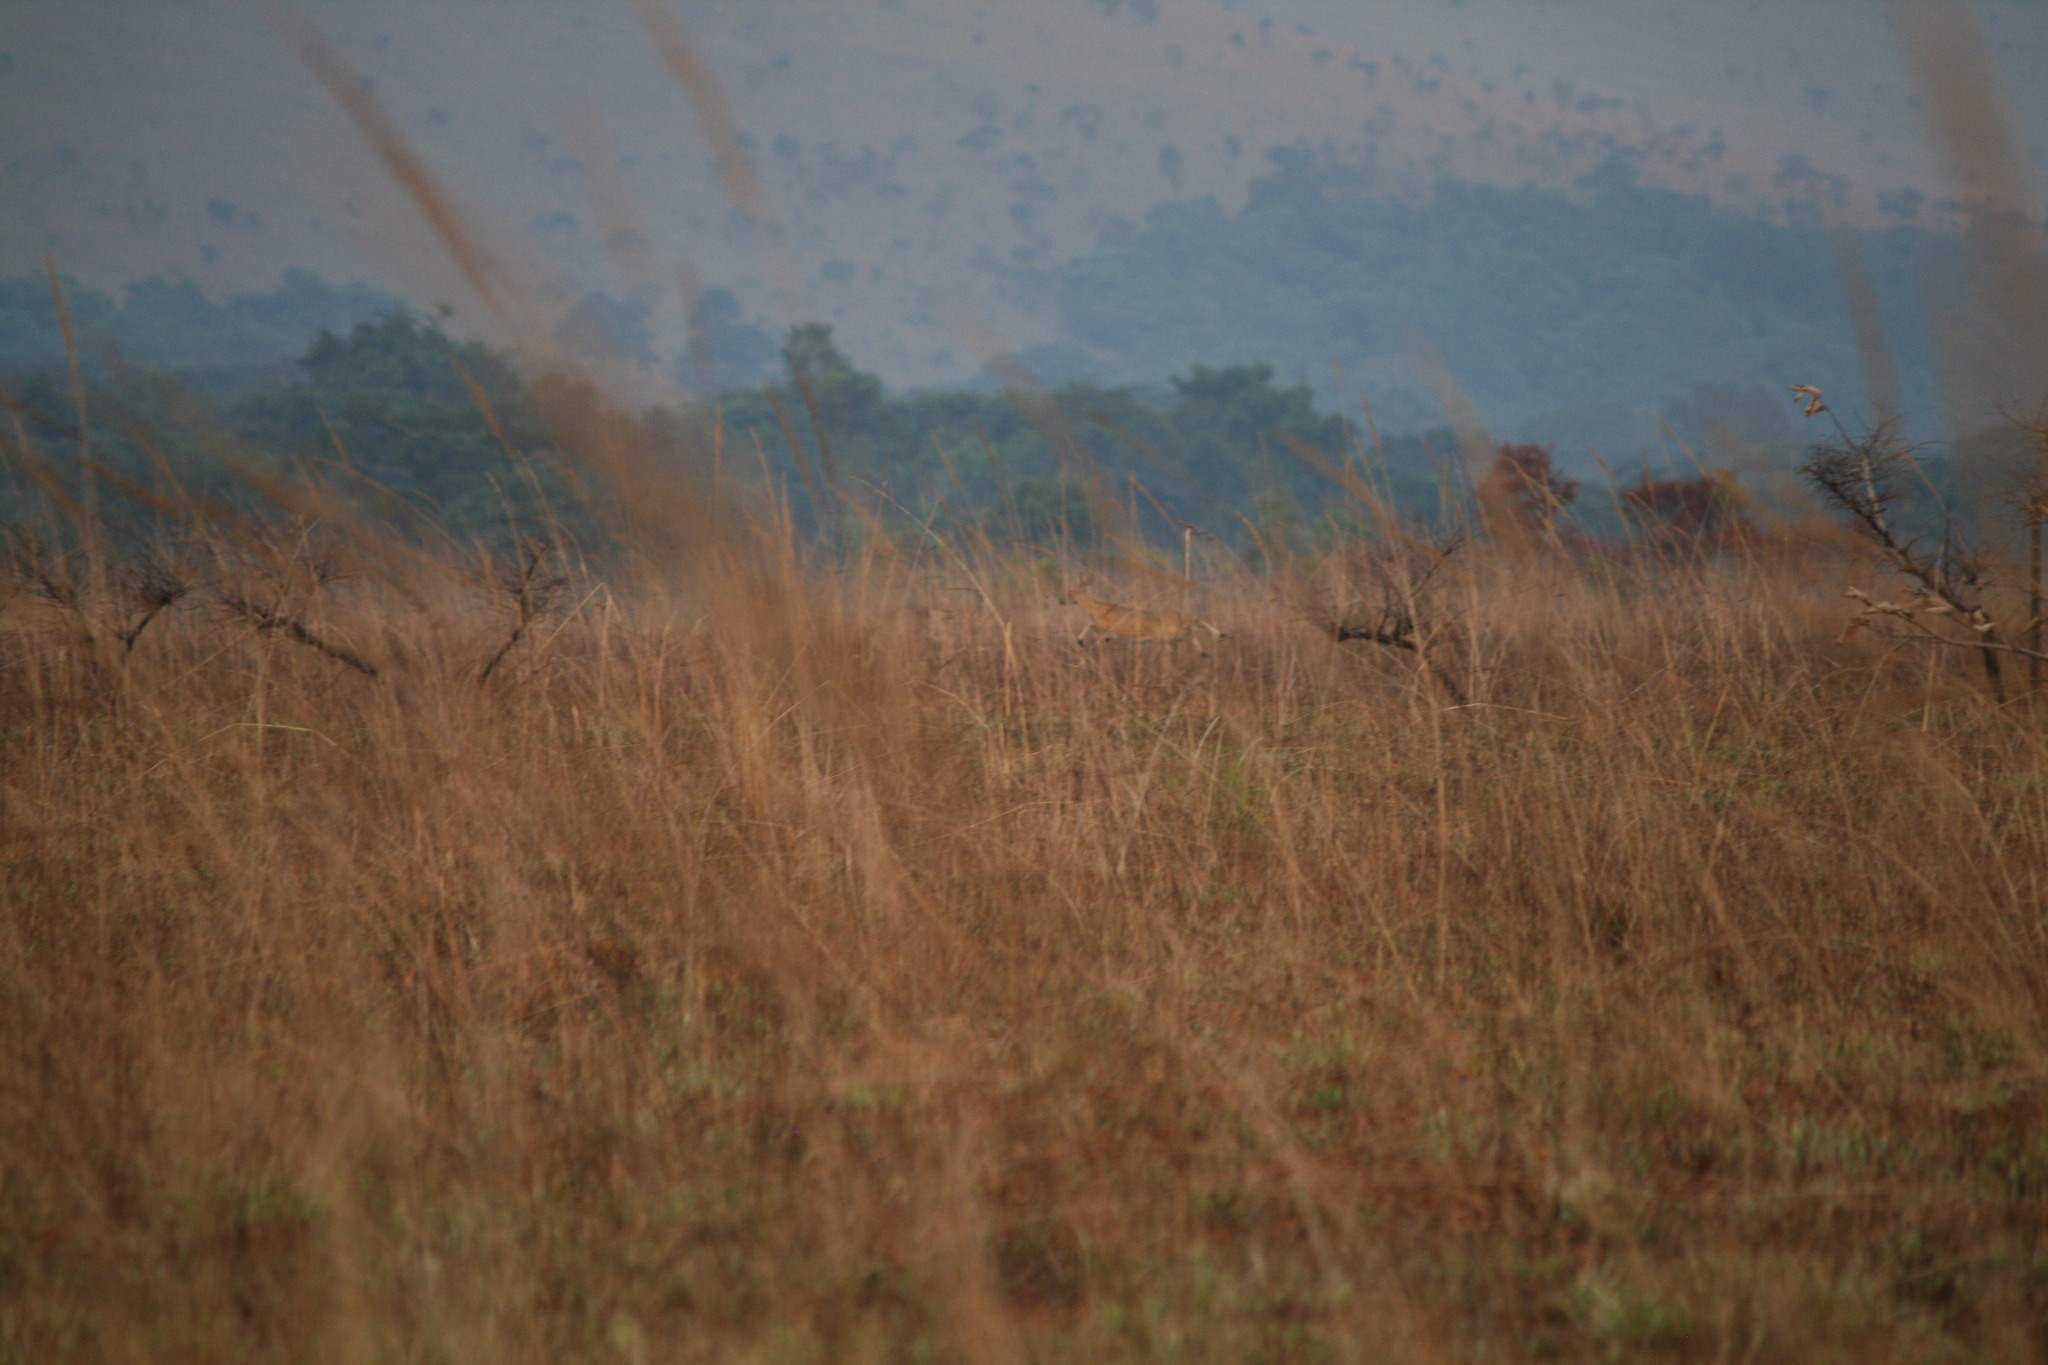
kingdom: Animalia
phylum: Chordata
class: Mammalia
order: Artiodactyla
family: Bovidae
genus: Sylvicapra
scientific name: Sylvicapra grimmia
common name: Bush duiker
